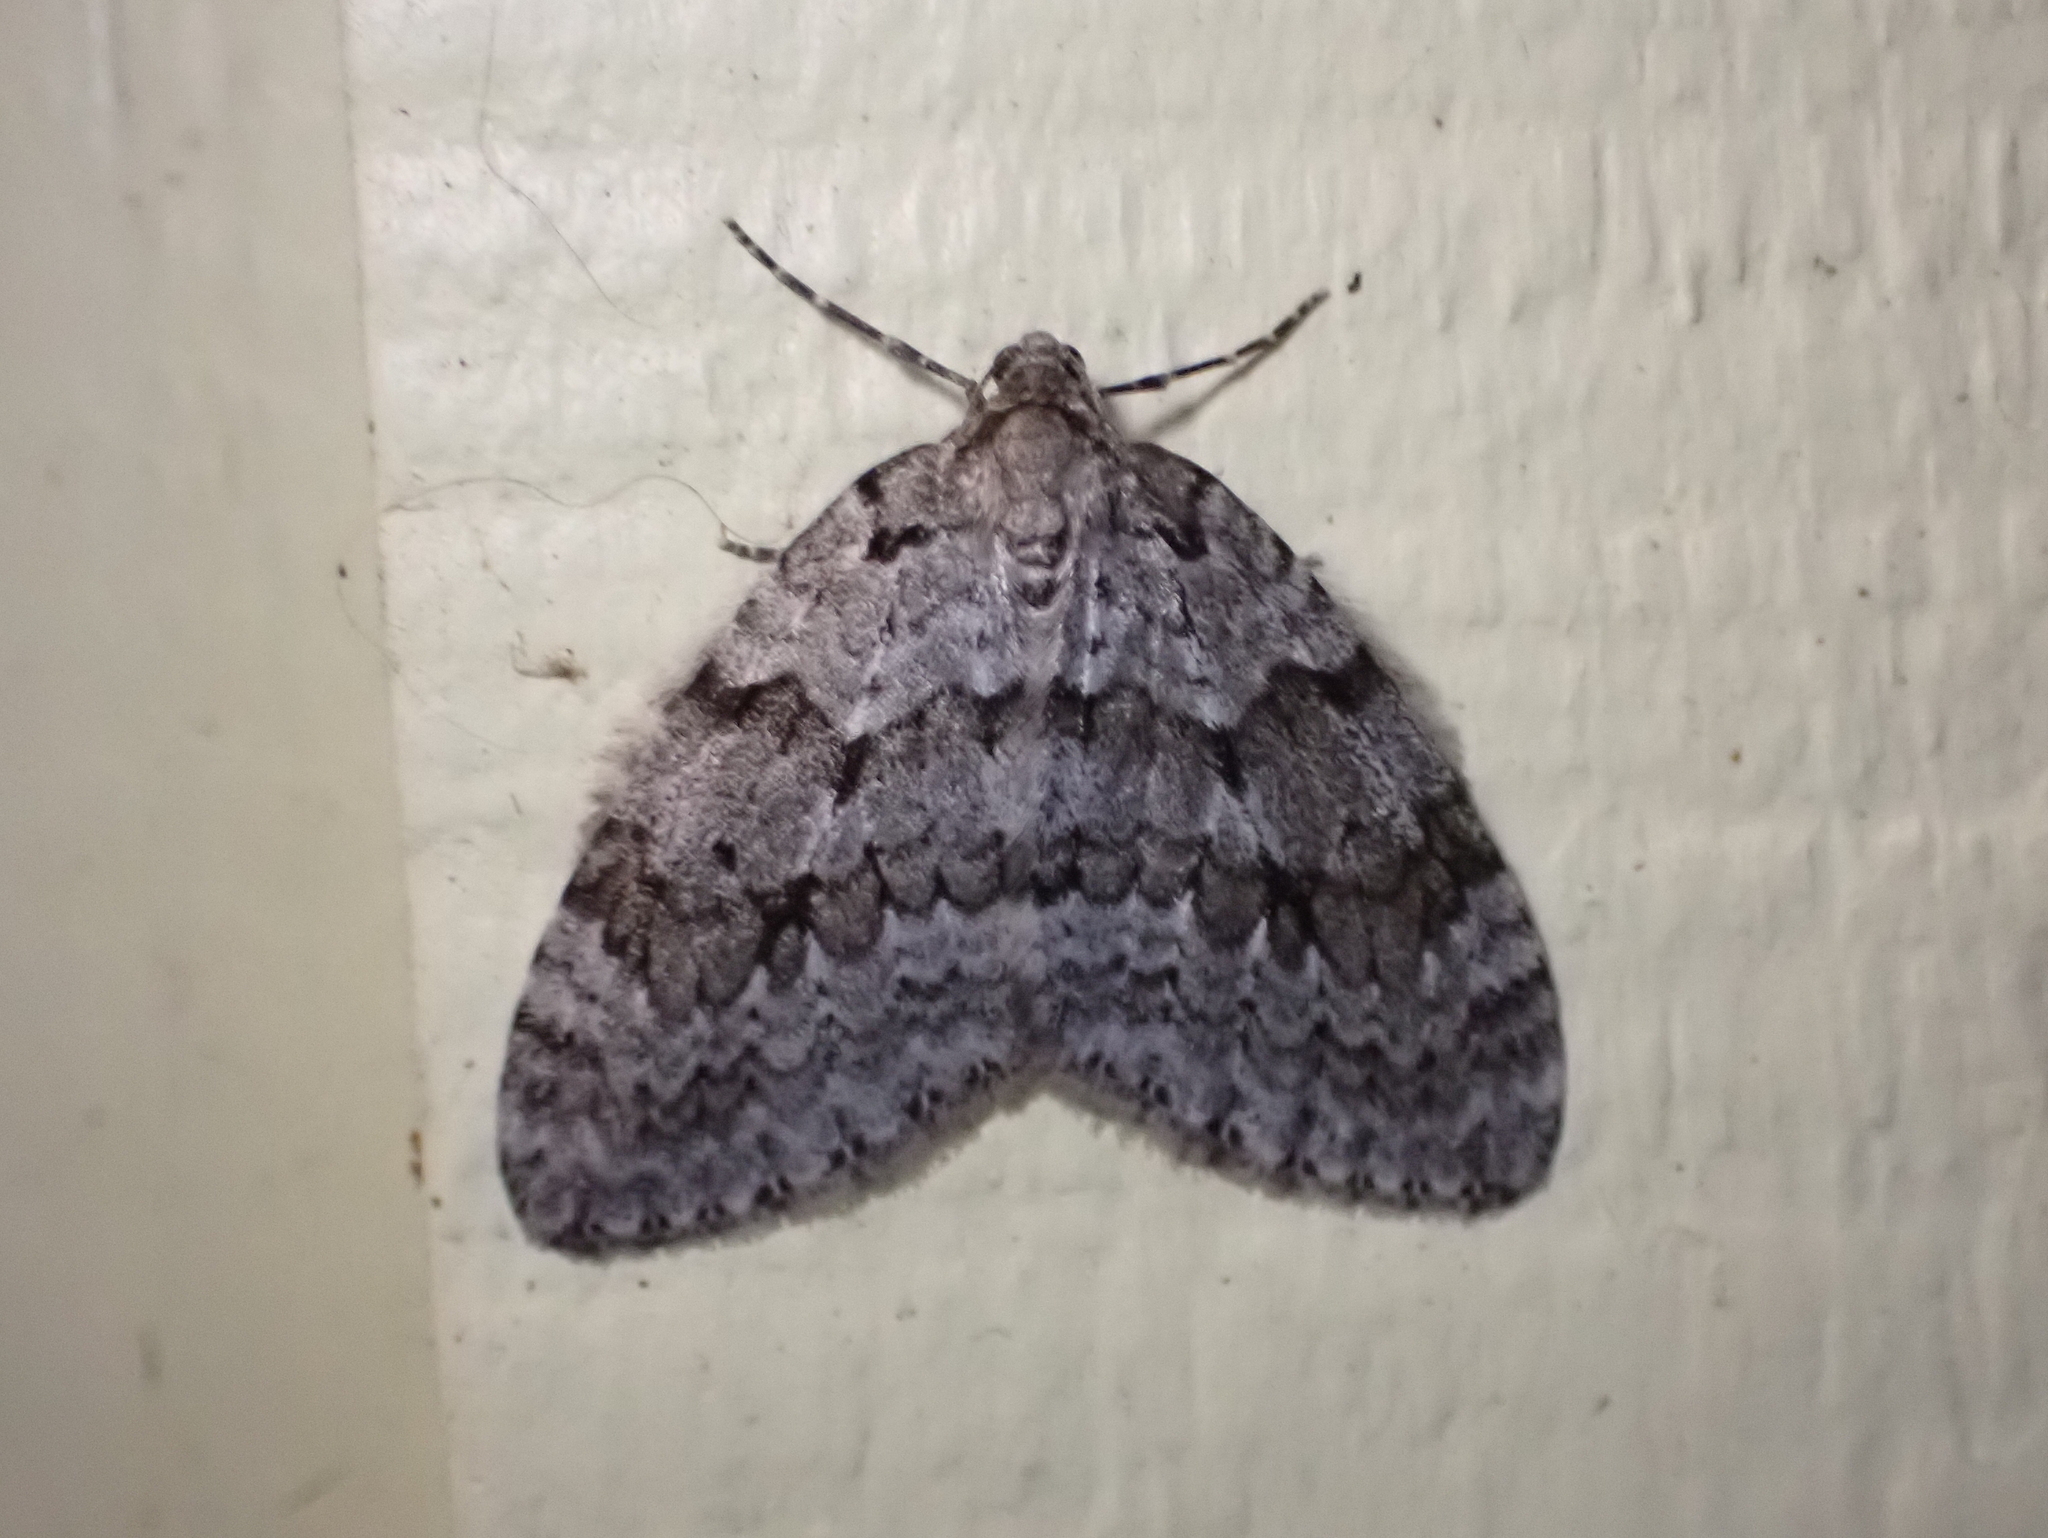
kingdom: Animalia
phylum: Arthropoda
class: Insecta
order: Lepidoptera
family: Geometridae
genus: Epirrita
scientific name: Epirrita autumnata
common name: Autumnal moth
